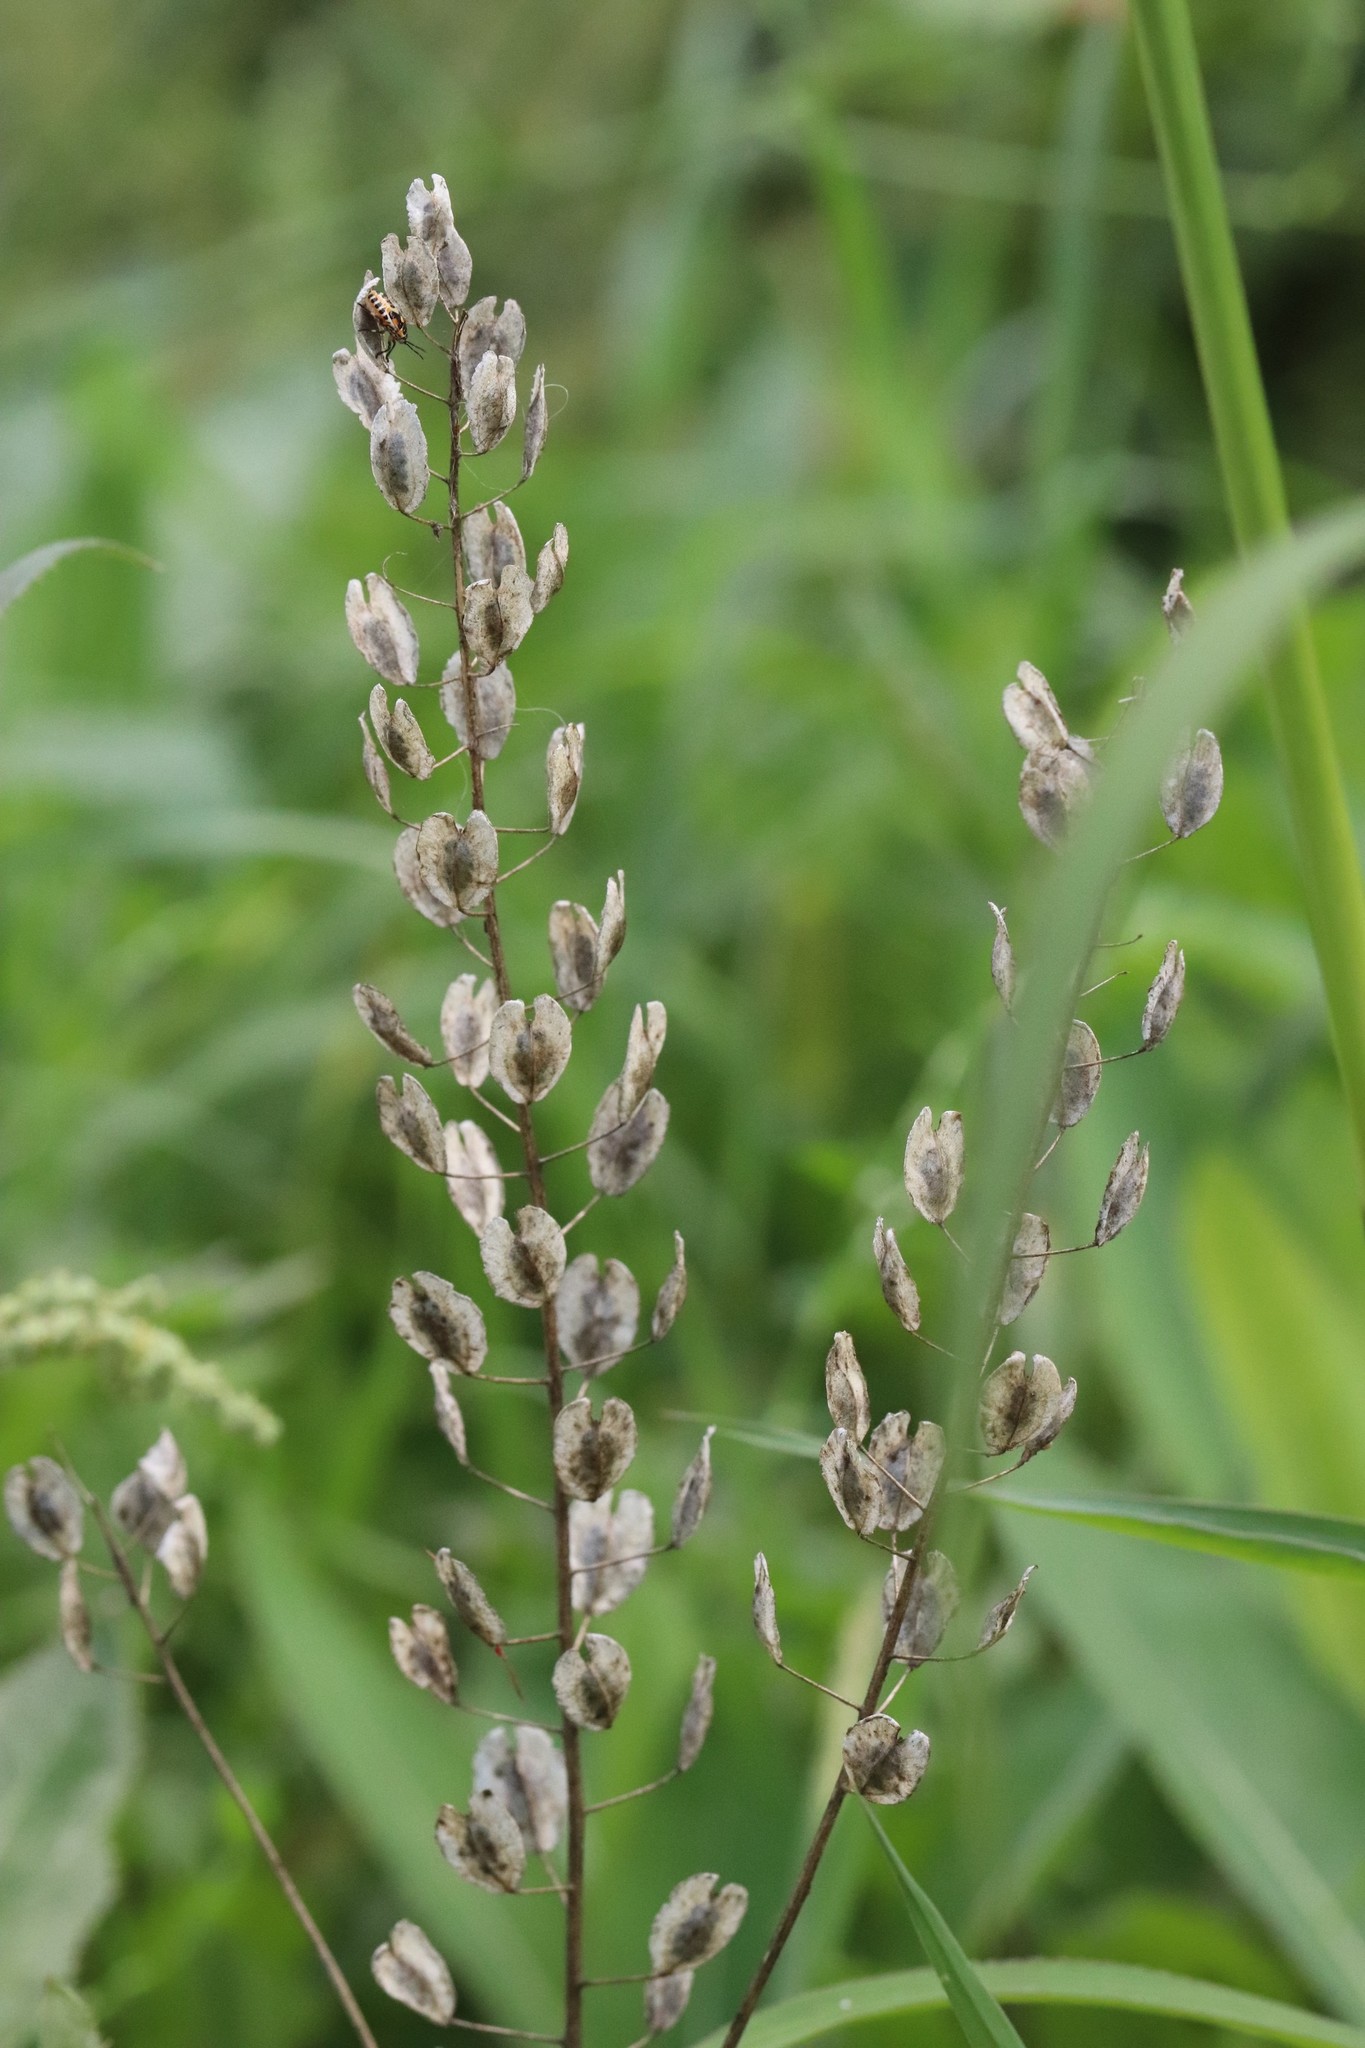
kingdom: Plantae
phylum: Tracheophyta
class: Magnoliopsida
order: Brassicales
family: Brassicaceae
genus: Thlaspi
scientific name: Thlaspi arvense
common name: Field pennycress
